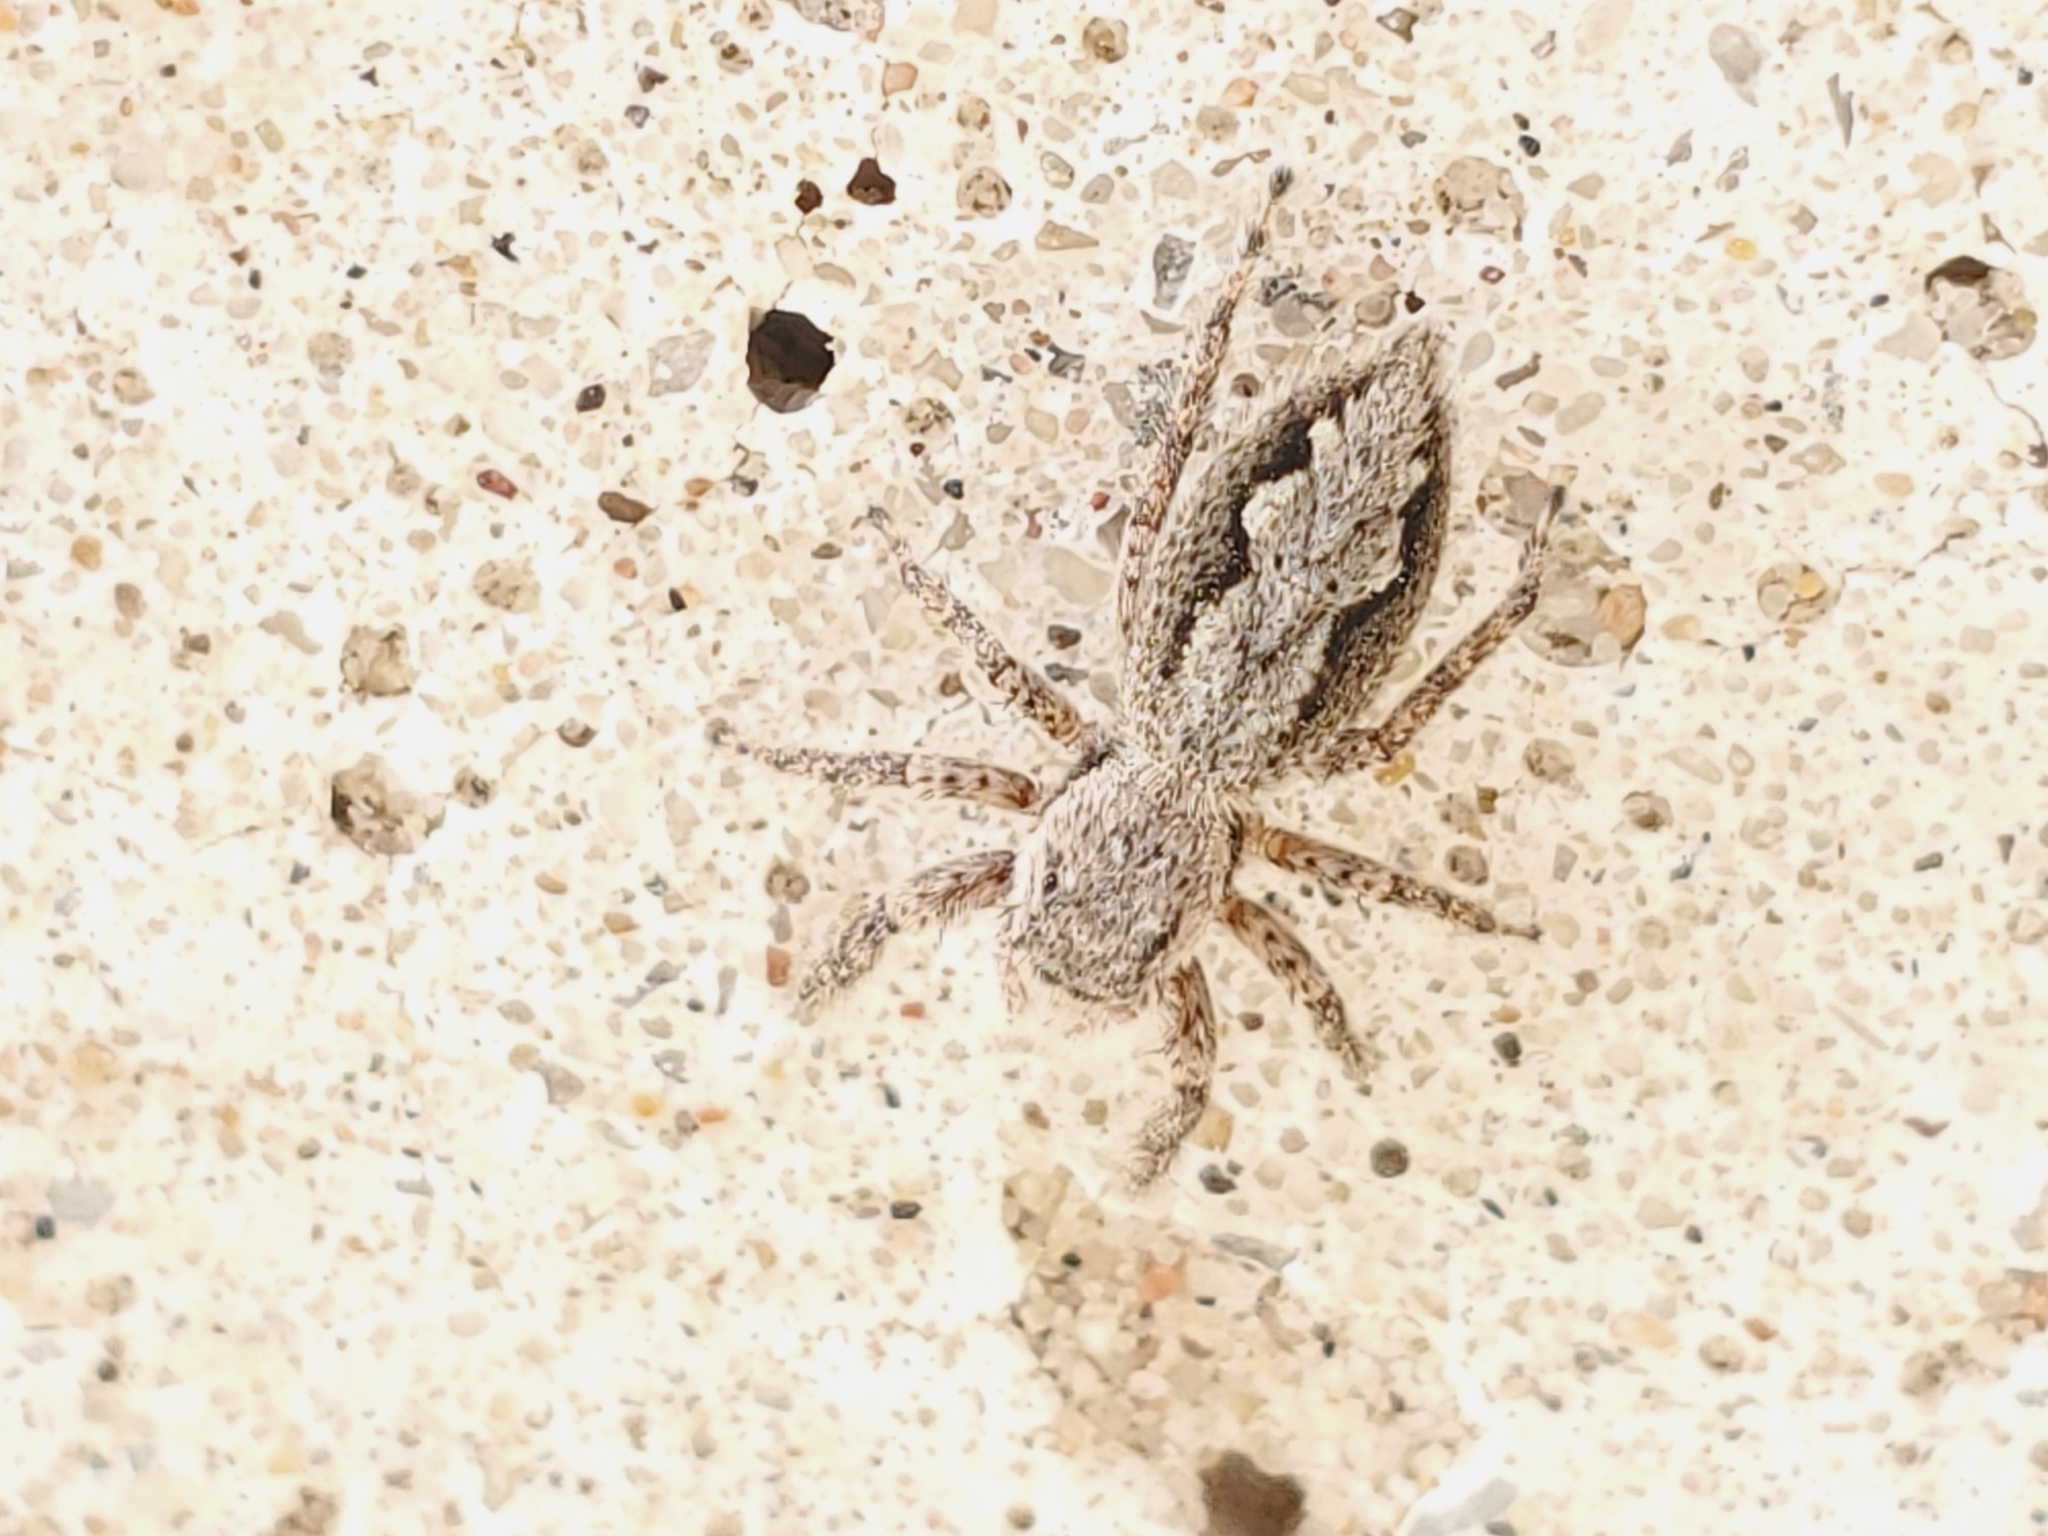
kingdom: Animalia
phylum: Arthropoda
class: Arachnida
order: Araneae
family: Salticidae
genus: Platycryptus
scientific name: Platycryptus undatus
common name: Tan jumping spider
